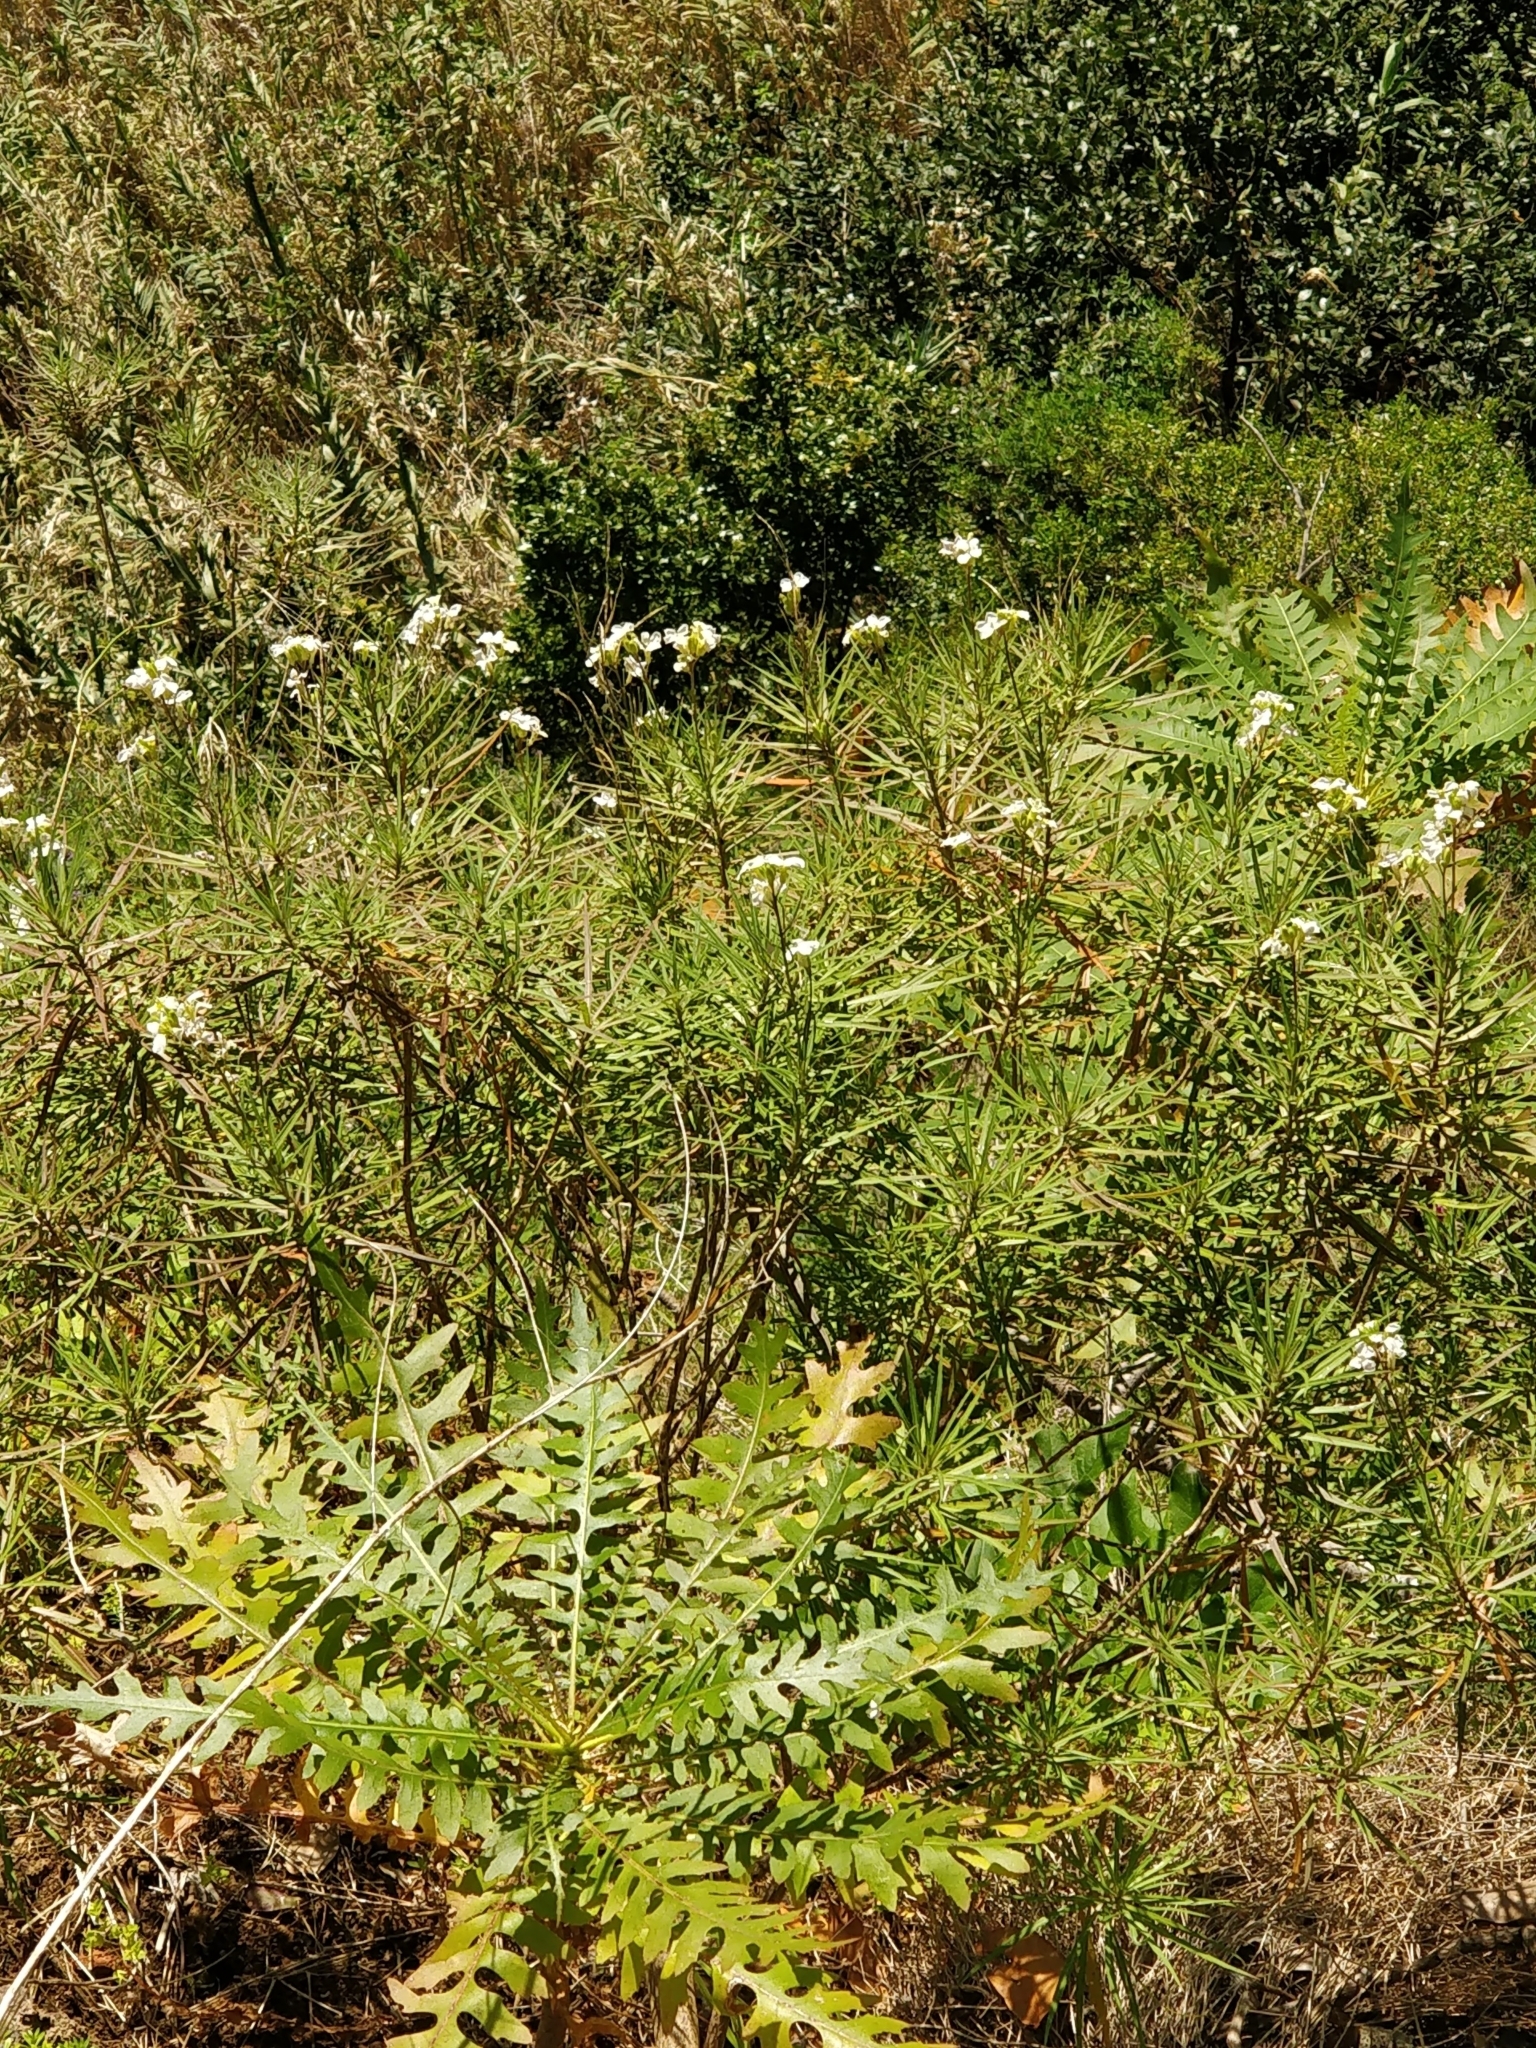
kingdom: Plantae
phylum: Tracheophyta
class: Magnoliopsida
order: Brassicales
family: Brassicaceae
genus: Erysimum
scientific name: Erysimum bicolor
